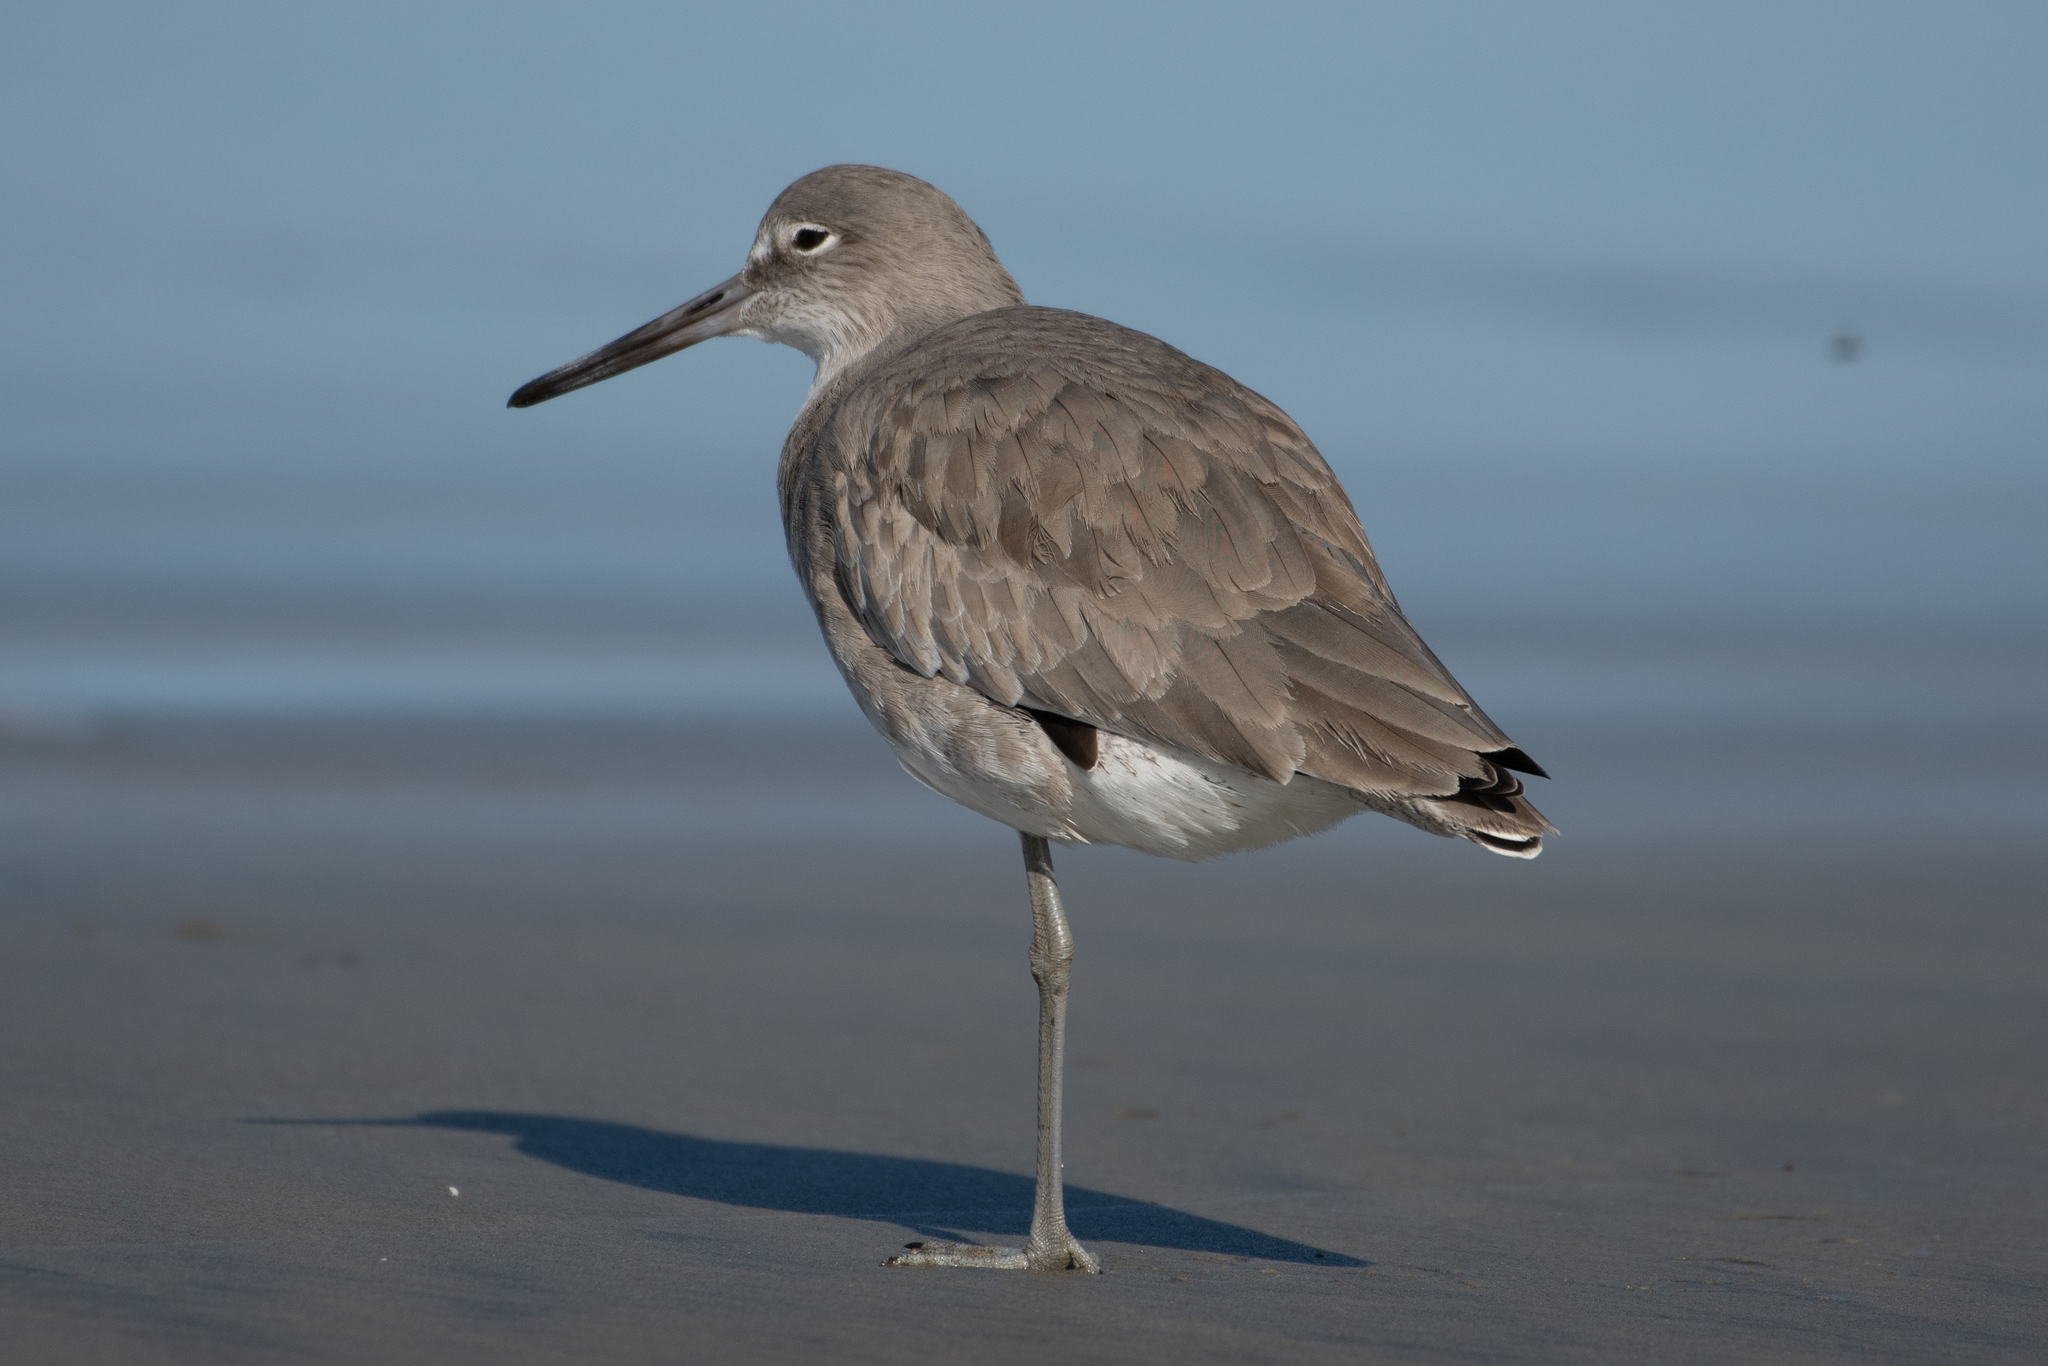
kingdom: Animalia
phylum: Chordata
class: Aves
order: Charadriiformes
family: Scolopacidae
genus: Tringa
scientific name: Tringa semipalmata
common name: Willet
